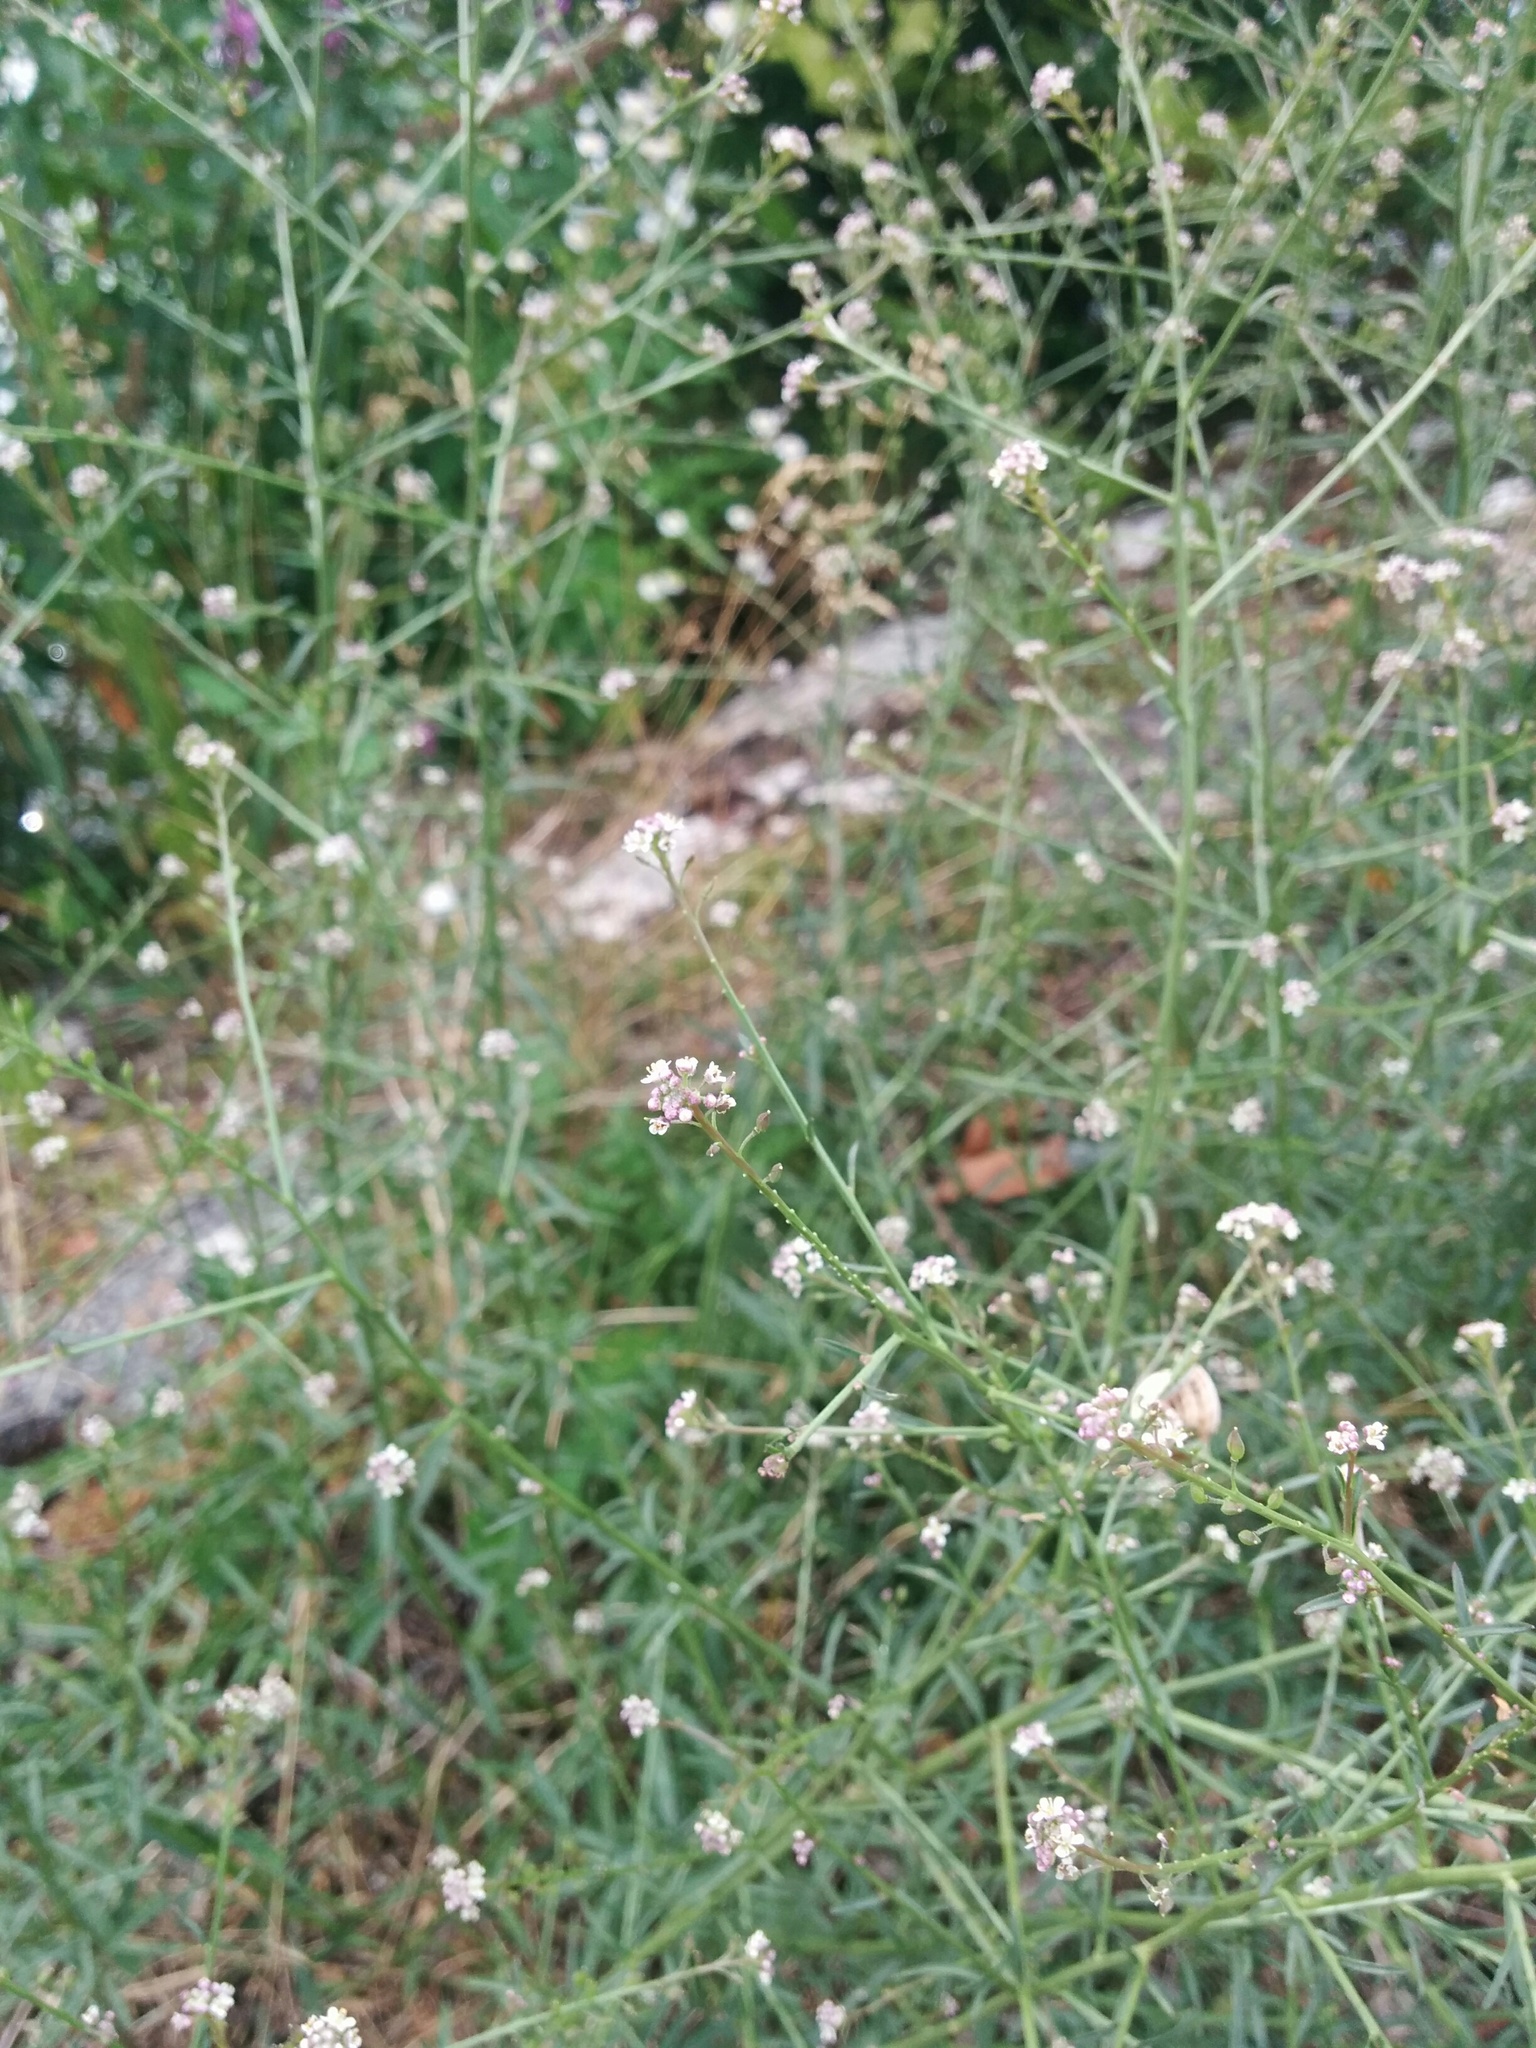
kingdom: Plantae
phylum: Tracheophyta
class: Magnoliopsida
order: Brassicales
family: Brassicaceae
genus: Lepidium
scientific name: Lepidium graminifolium
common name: Tall pepperwort
